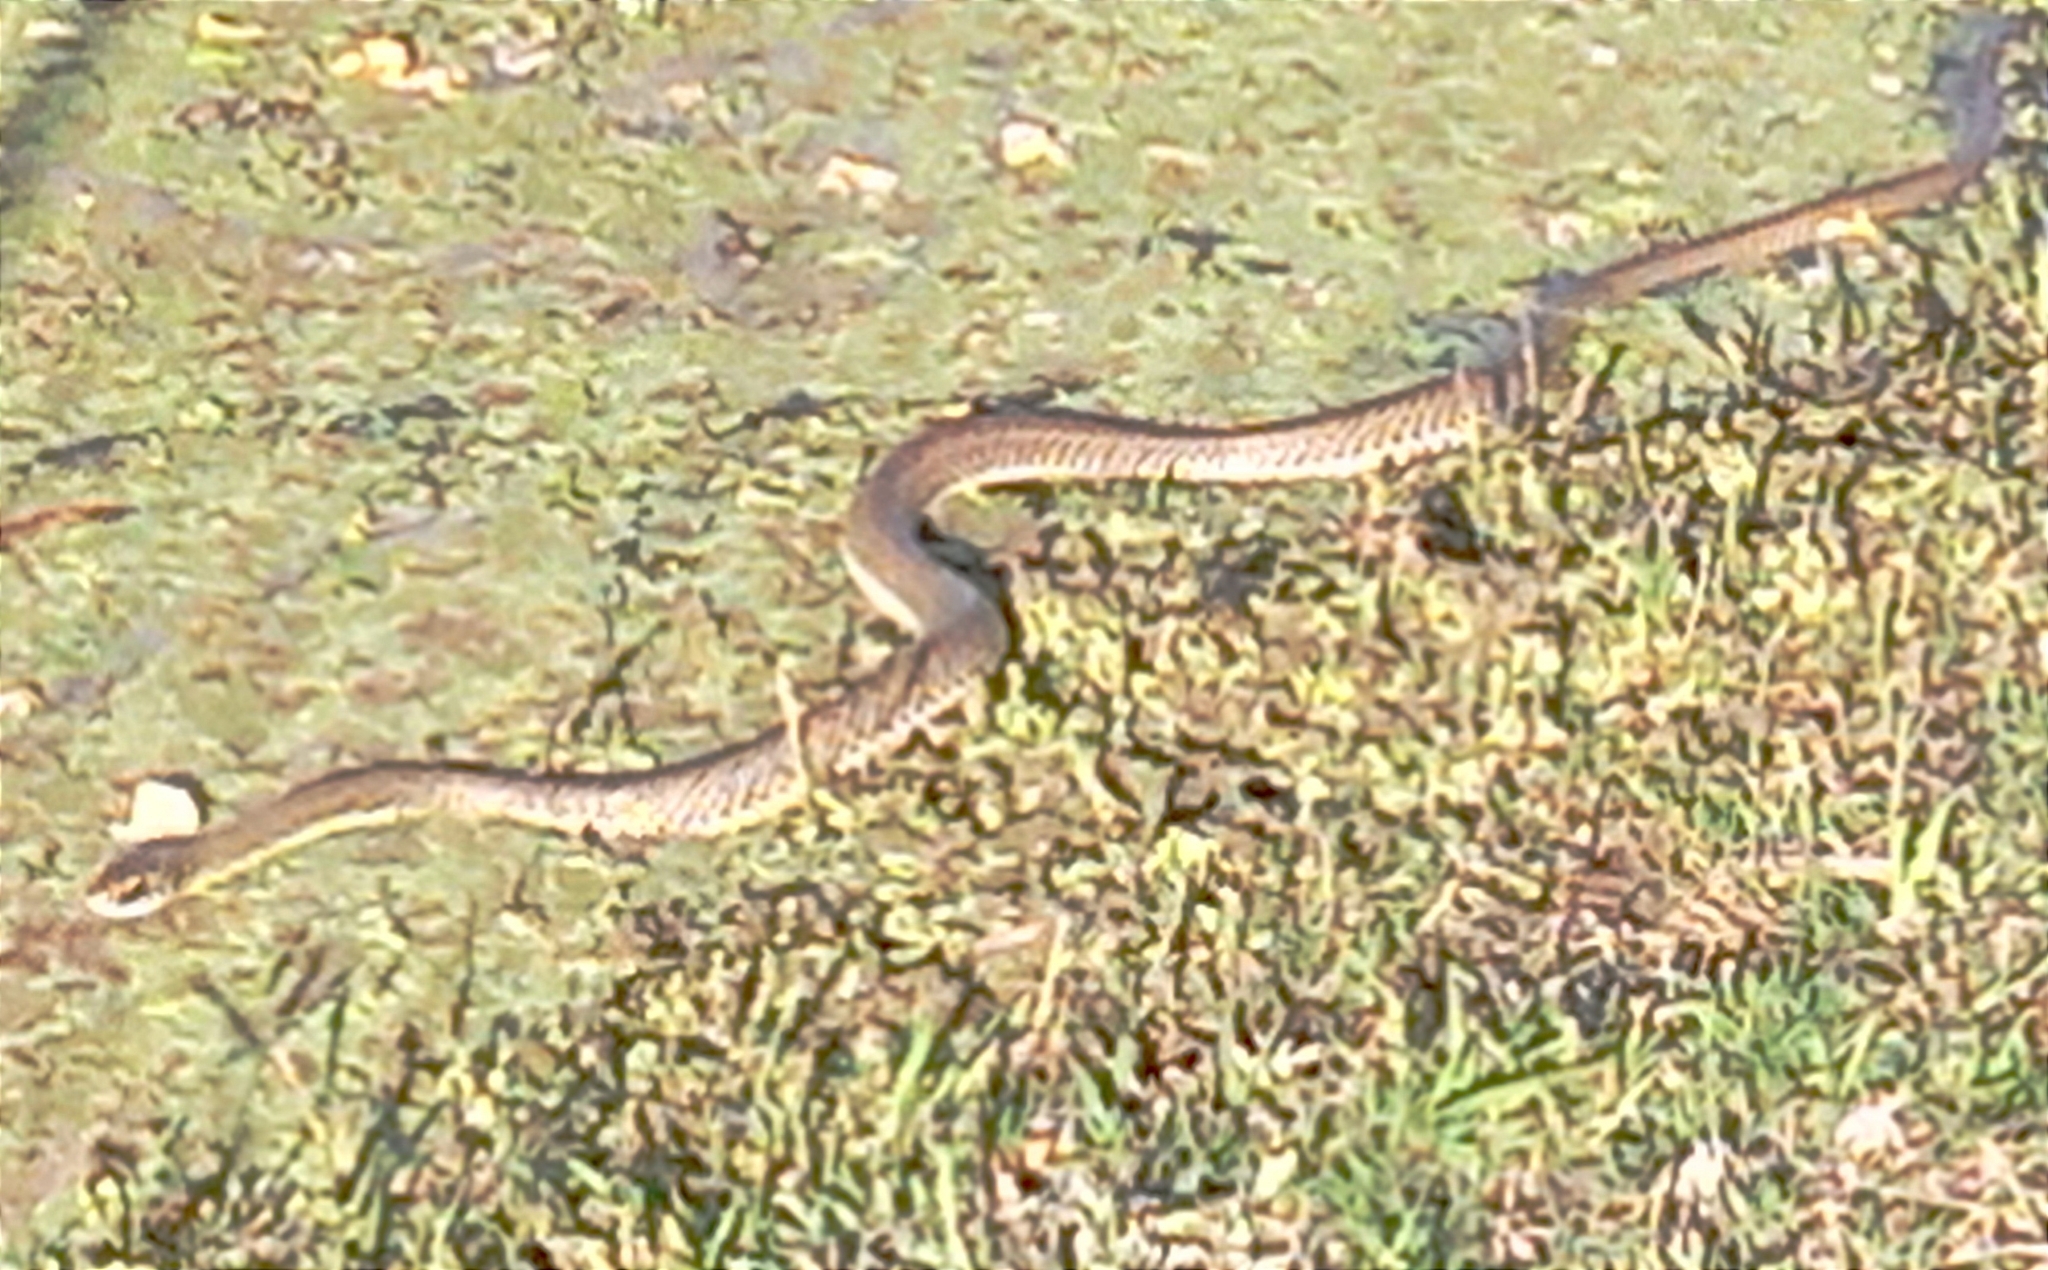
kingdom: Animalia
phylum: Chordata
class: Squamata
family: Colubridae
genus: Philodryas
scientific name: Philodryas patagoniensis
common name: Patagonia green racer
